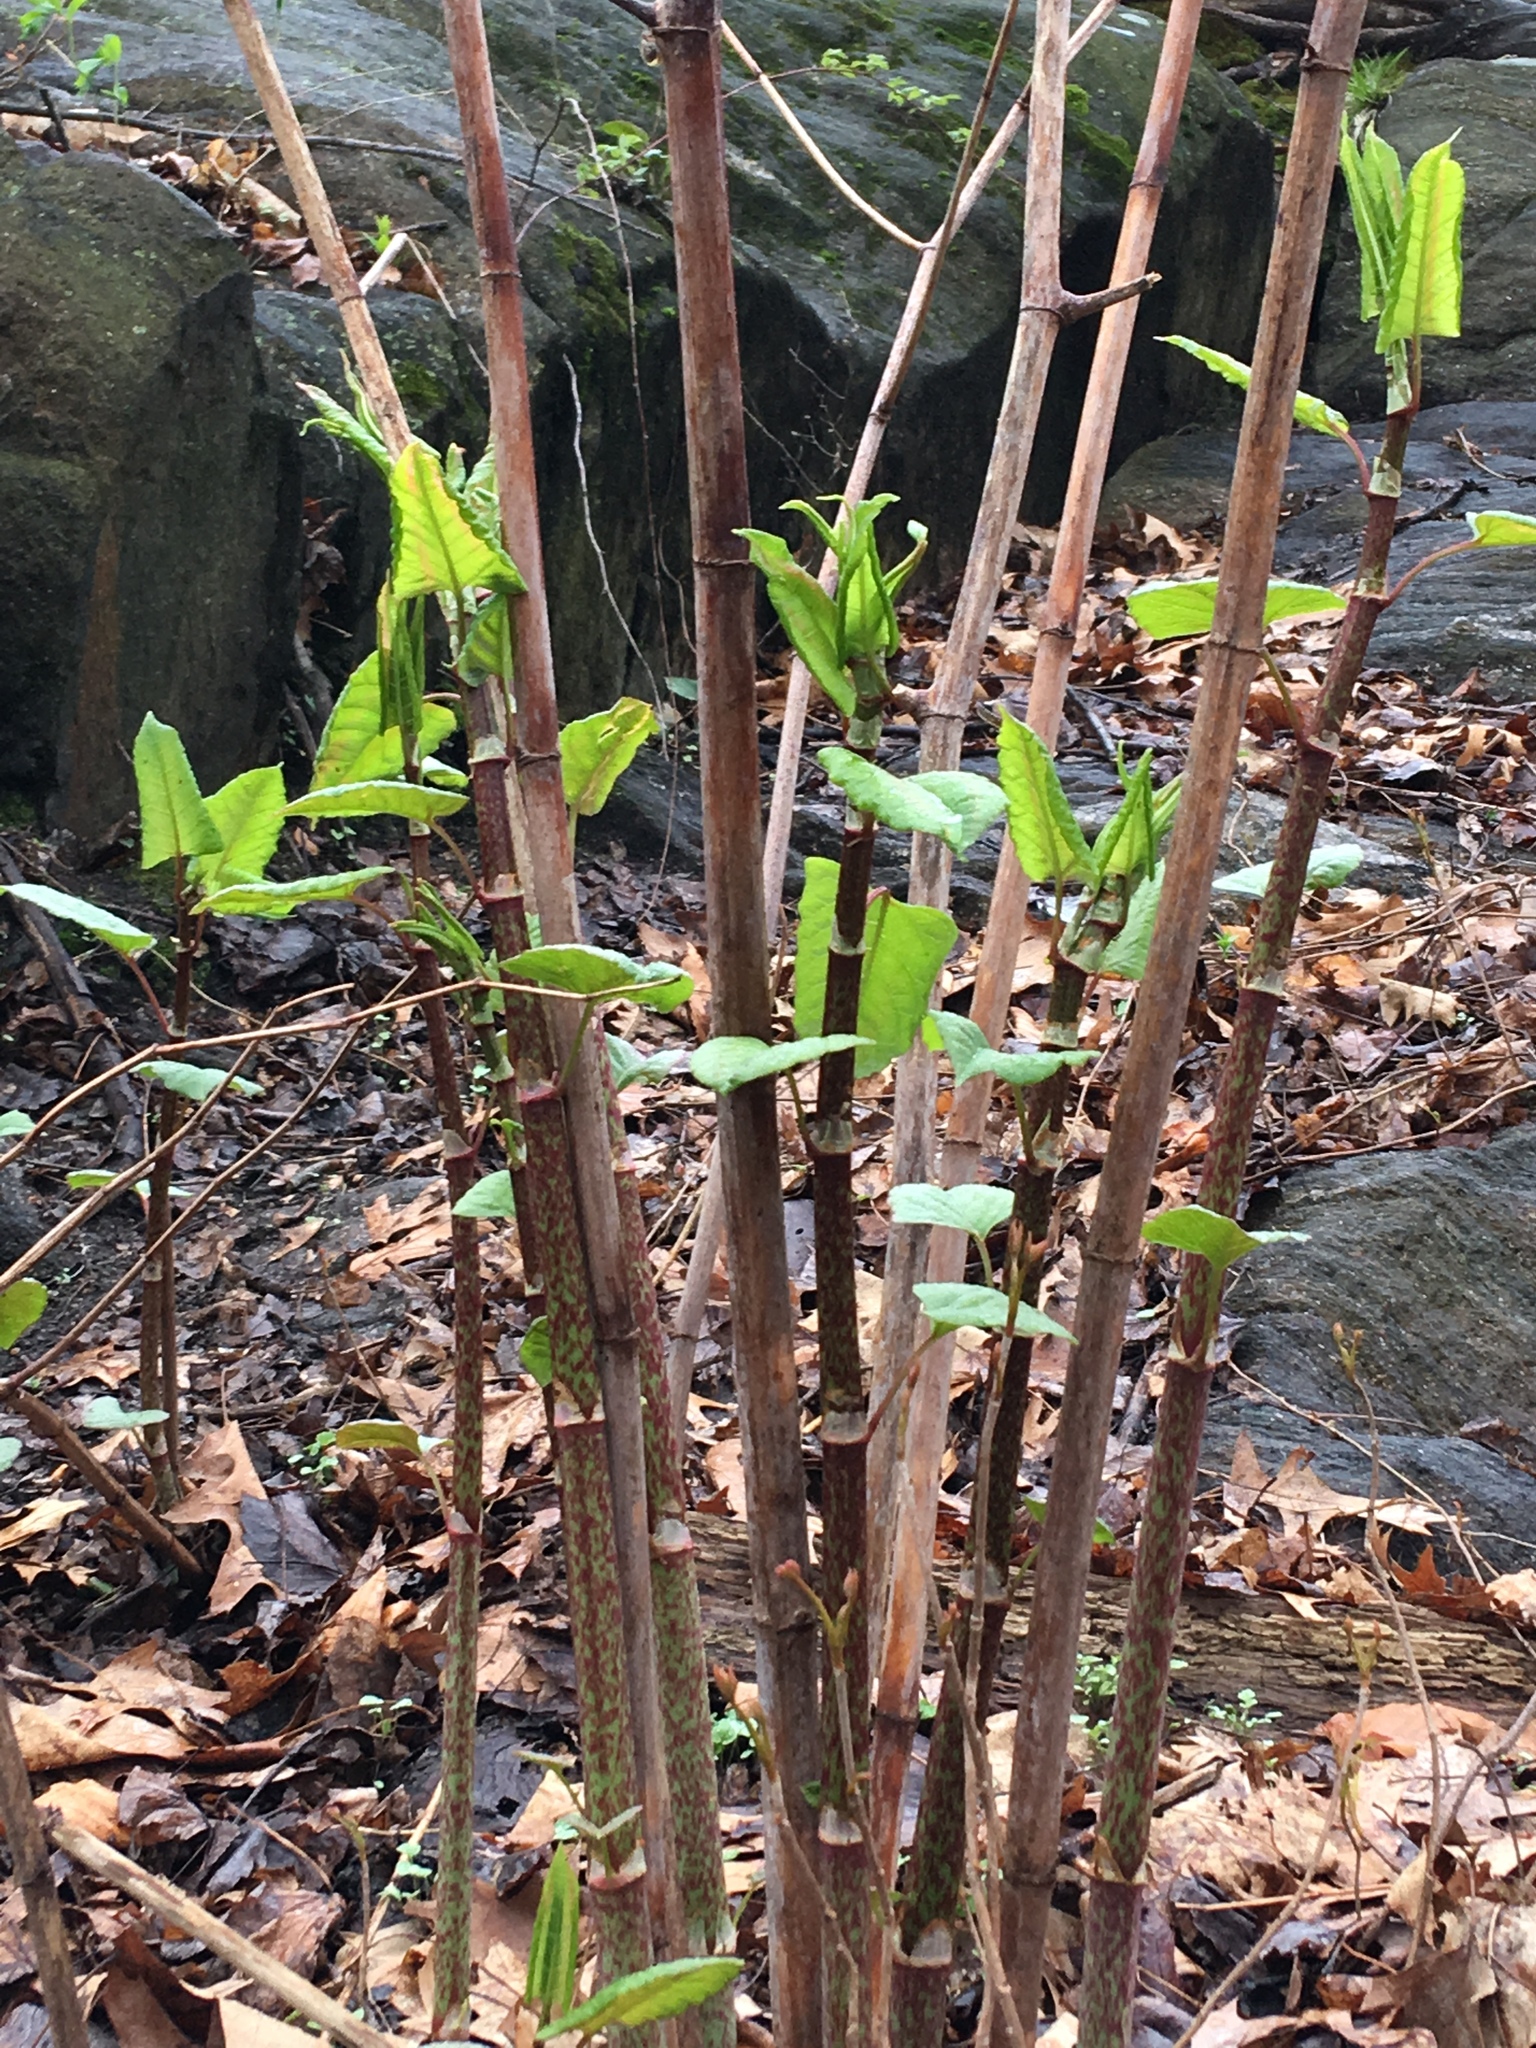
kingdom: Plantae
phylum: Tracheophyta
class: Magnoliopsida
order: Caryophyllales
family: Polygonaceae
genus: Reynoutria
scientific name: Reynoutria japonica
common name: Japanese knotweed
